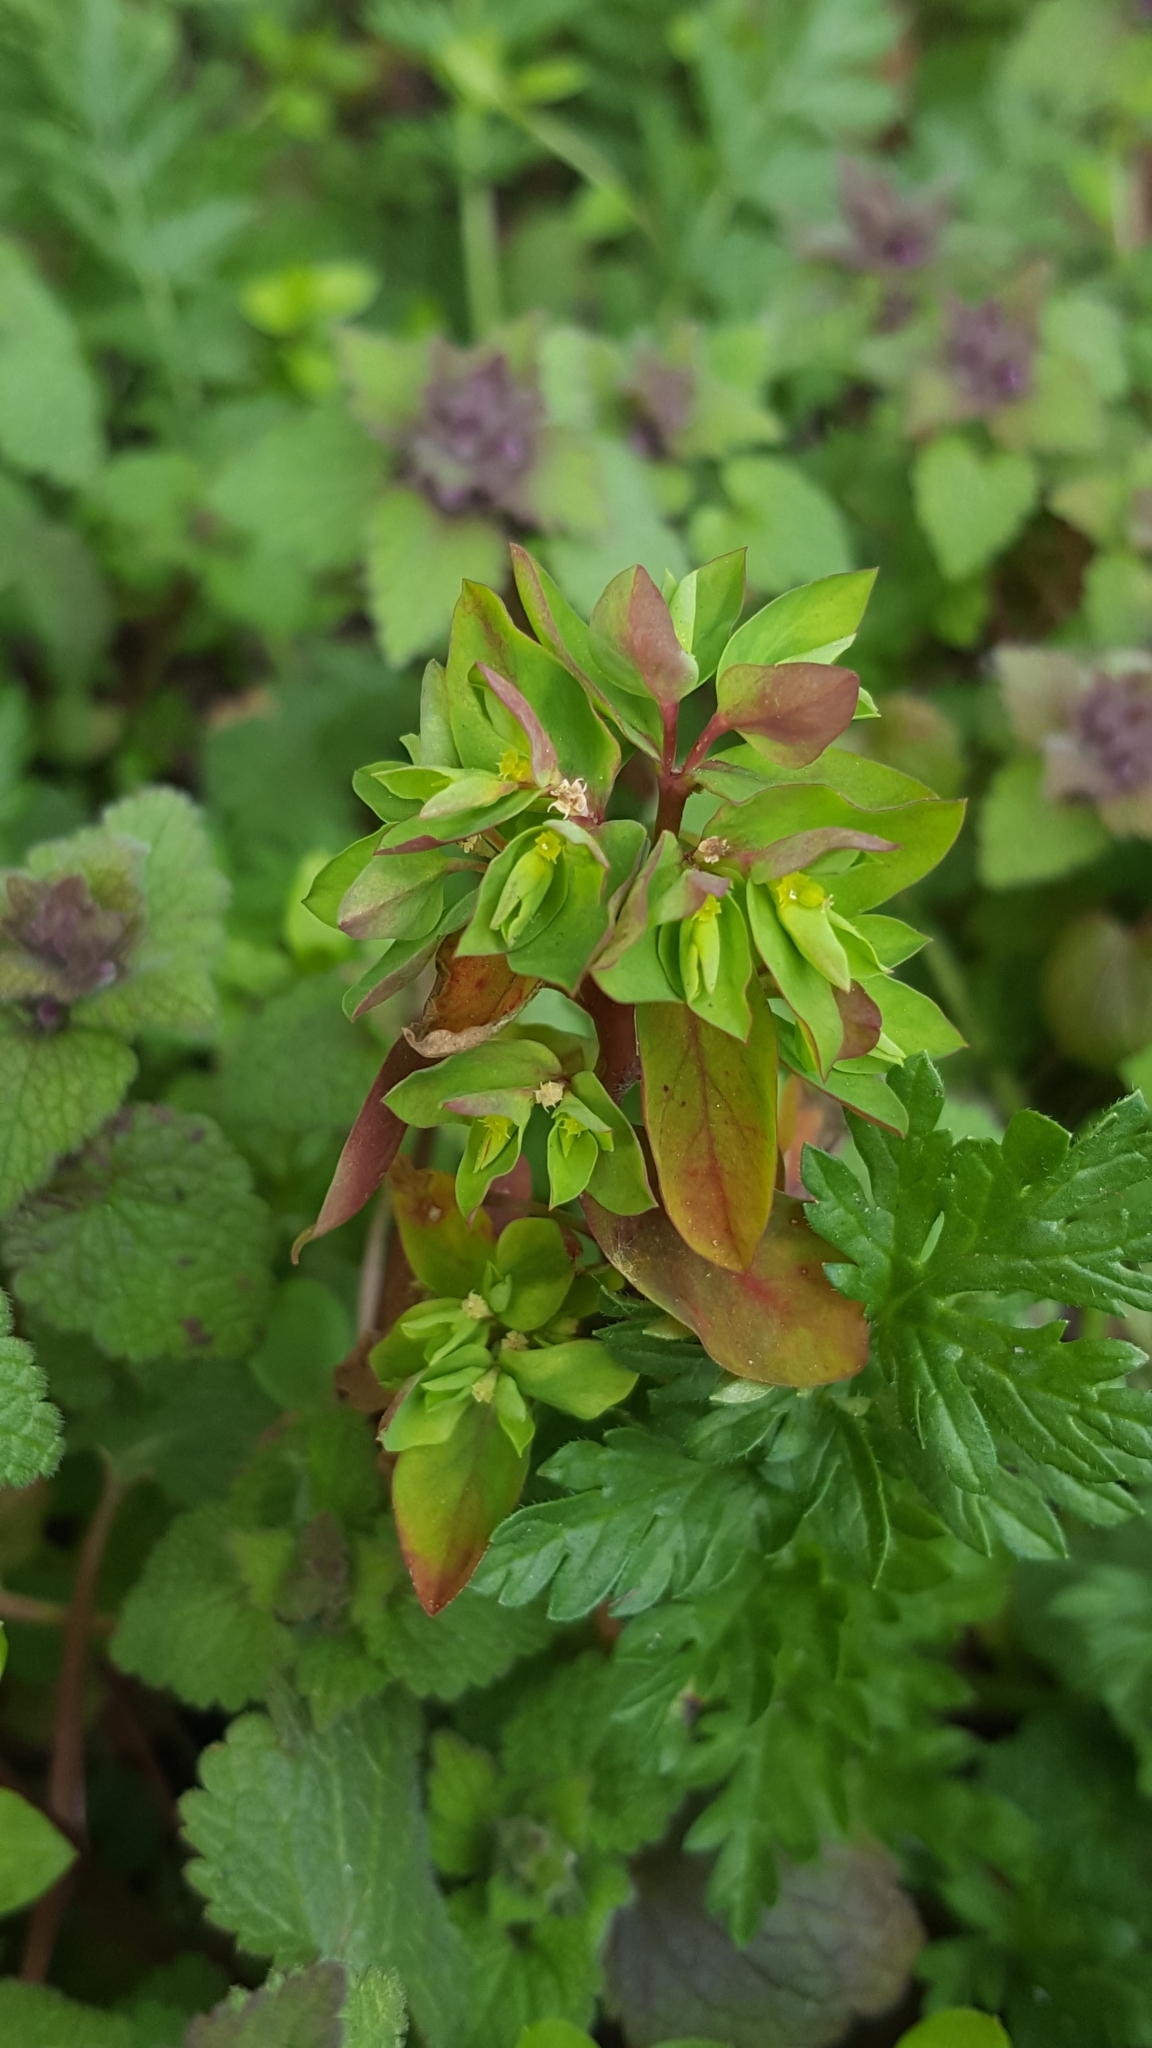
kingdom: Plantae
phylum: Tracheophyta
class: Magnoliopsida
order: Malpighiales
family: Euphorbiaceae
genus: Euphorbia
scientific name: Euphorbia peplus
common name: Petty spurge
